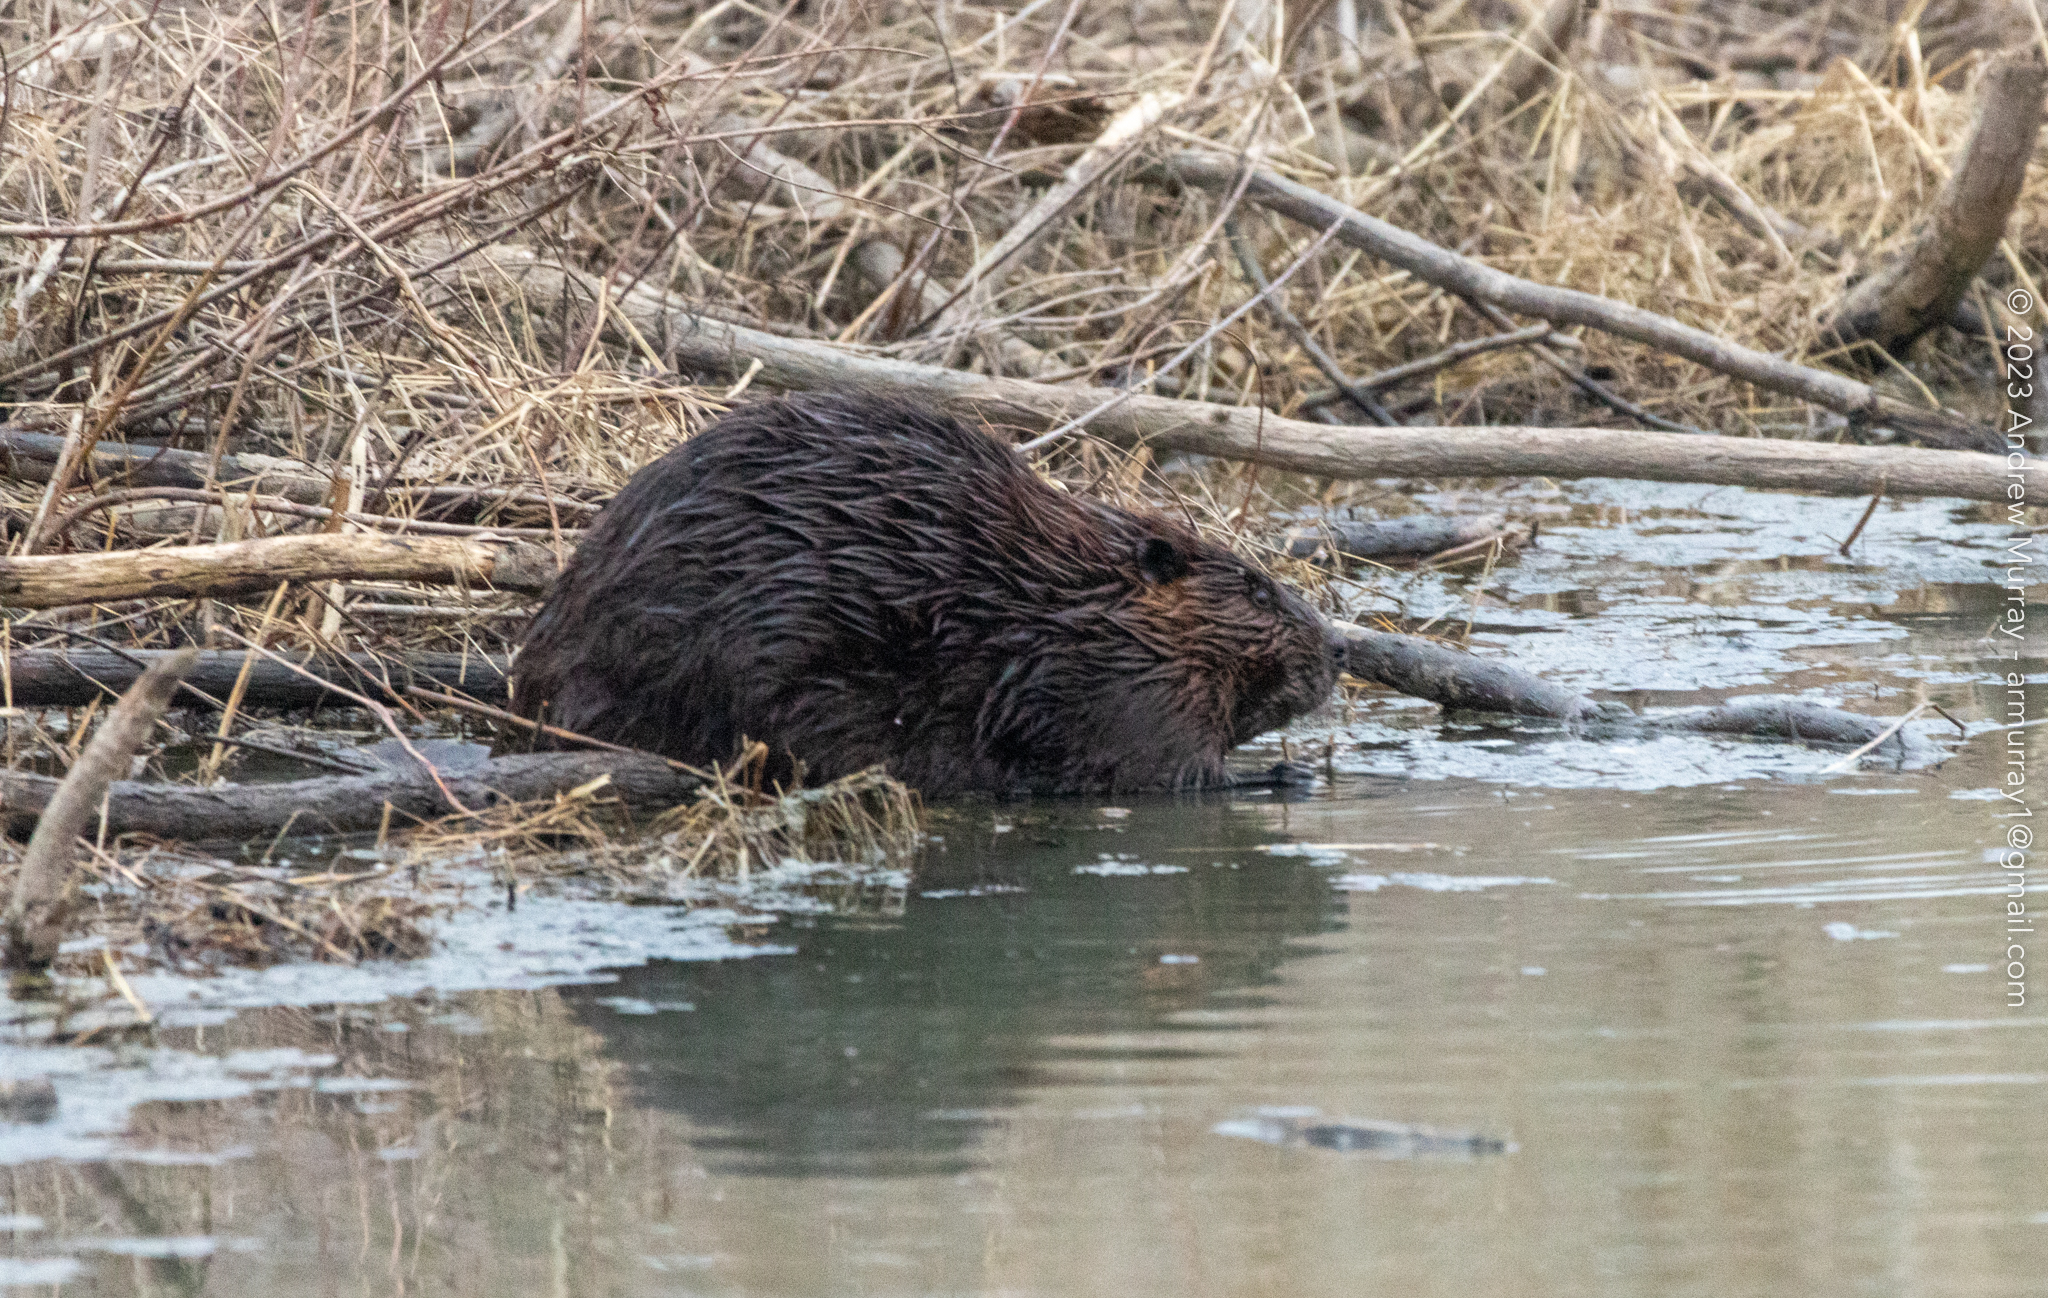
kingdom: Animalia
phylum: Chordata
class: Mammalia
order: Rodentia
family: Castoridae
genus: Castor
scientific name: Castor canadensis
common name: American beaver
